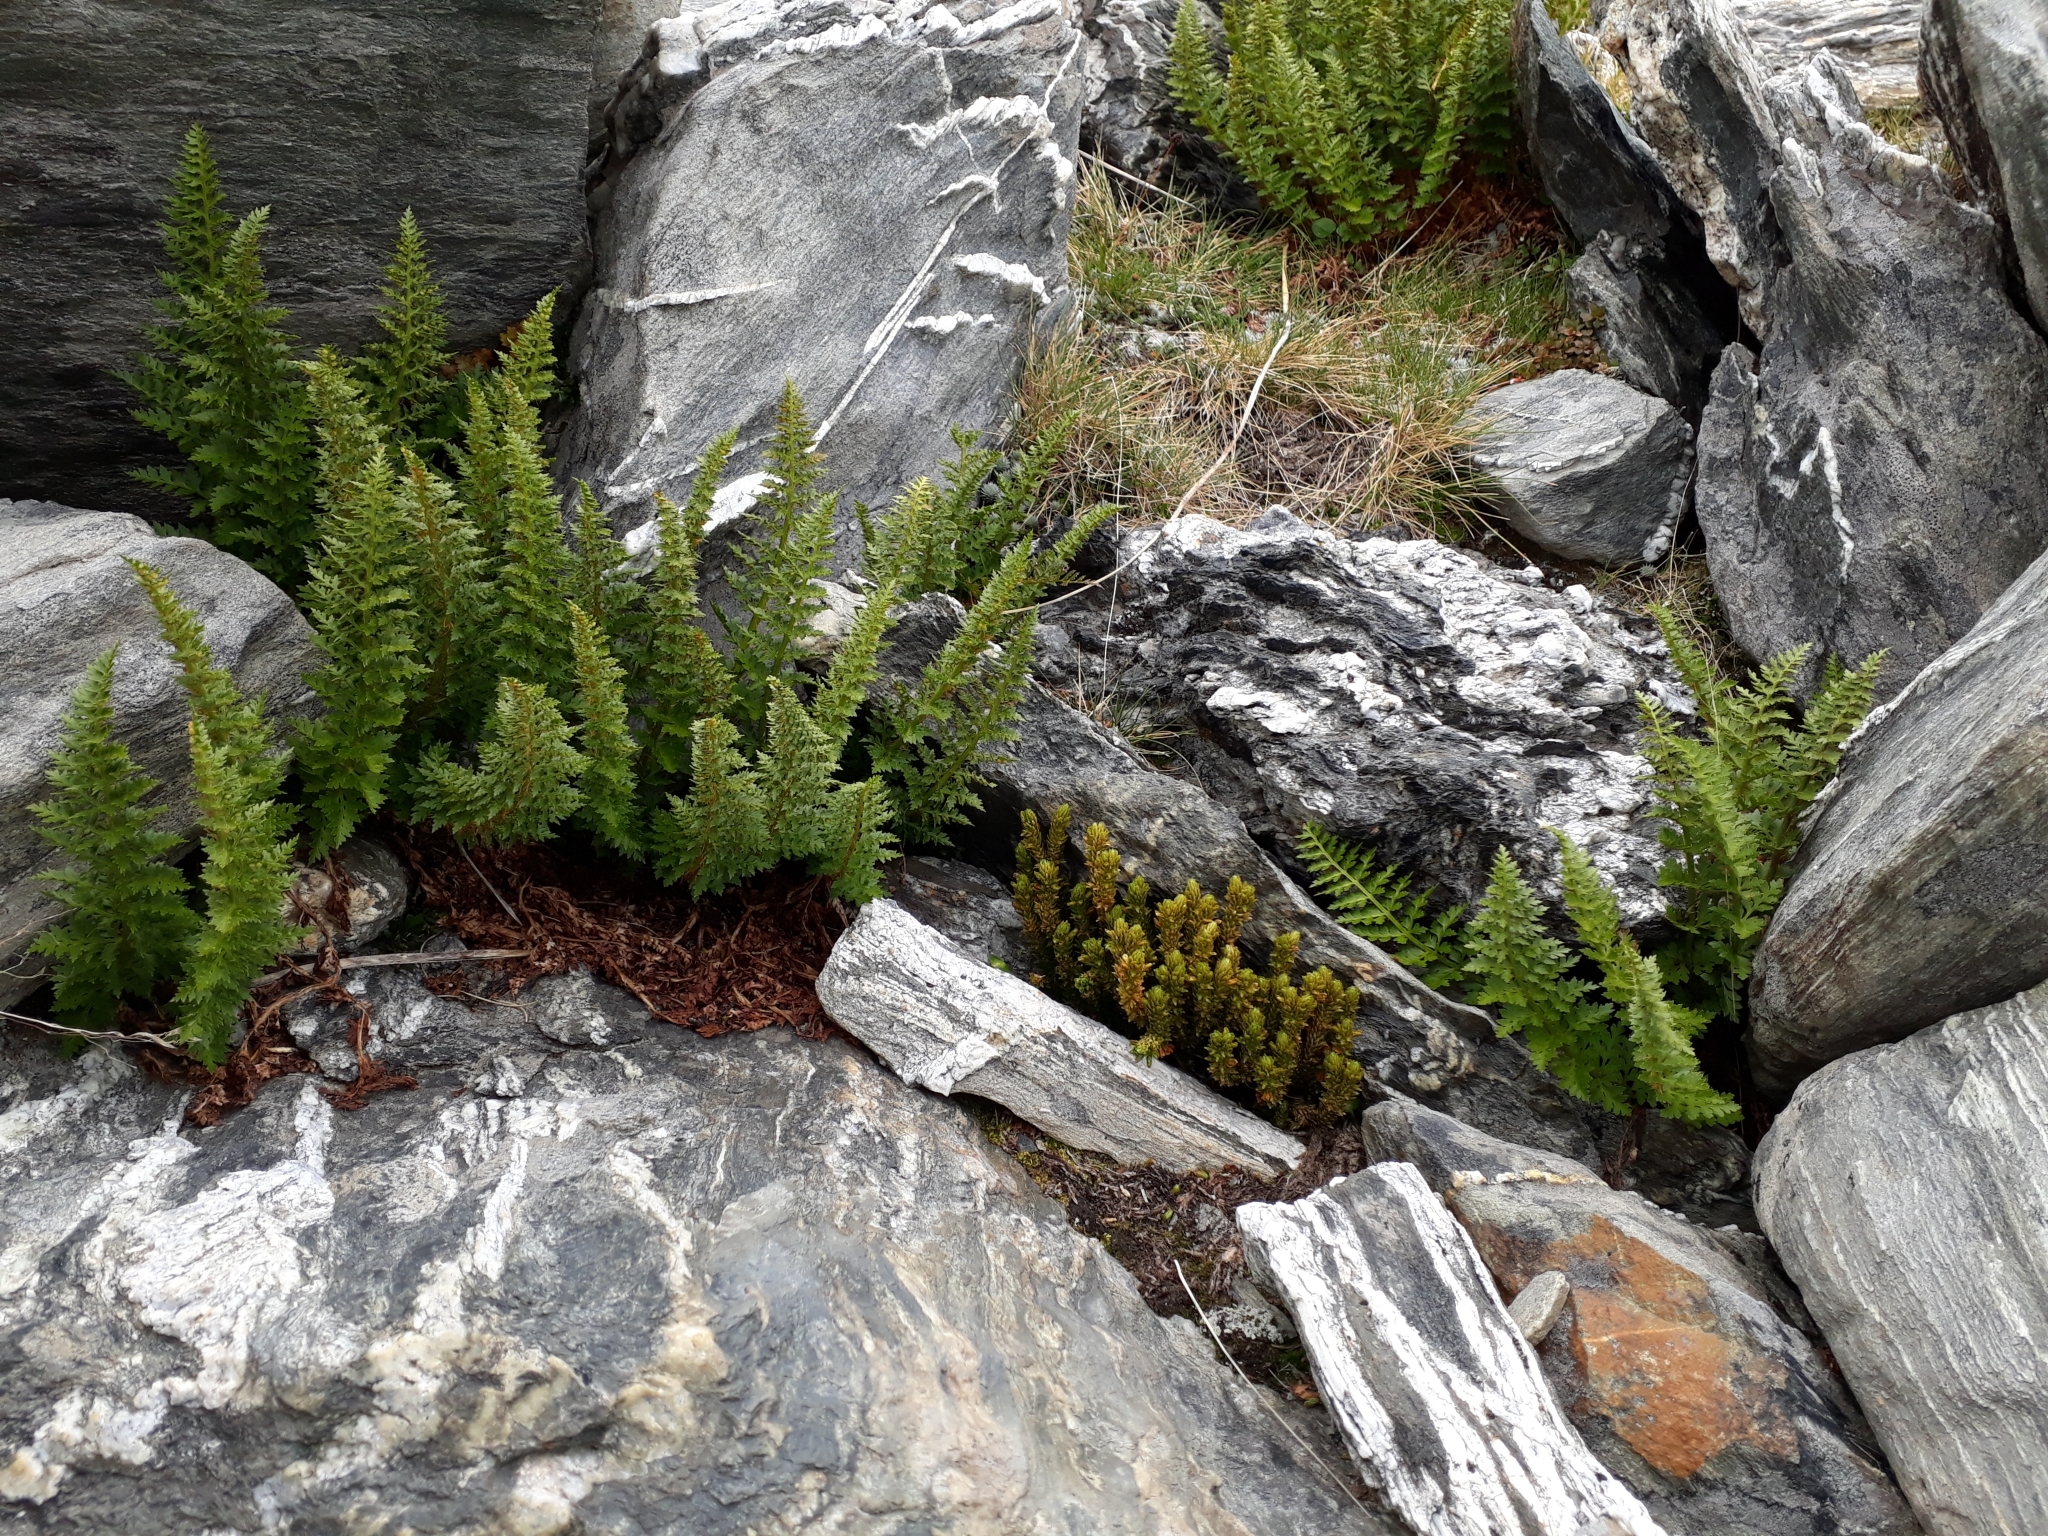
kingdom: Plantae
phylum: Tracheophyta
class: Lycopodiopsida
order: Lycopodiales
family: Lycopodiaceae
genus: Huperzia
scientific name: Huperzia australiana
